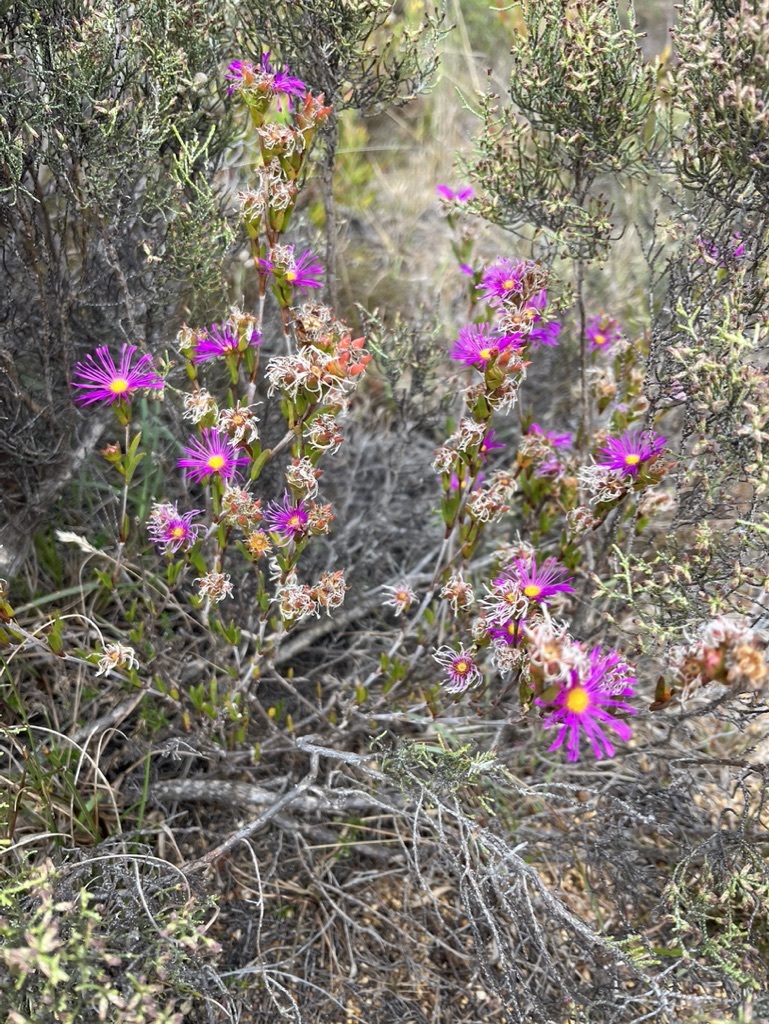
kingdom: Plantae
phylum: Tracheophyta
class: Magnoliopsida
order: Caryophyllales
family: Aizoaceae
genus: Erepsia
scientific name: Erepsia anceps
